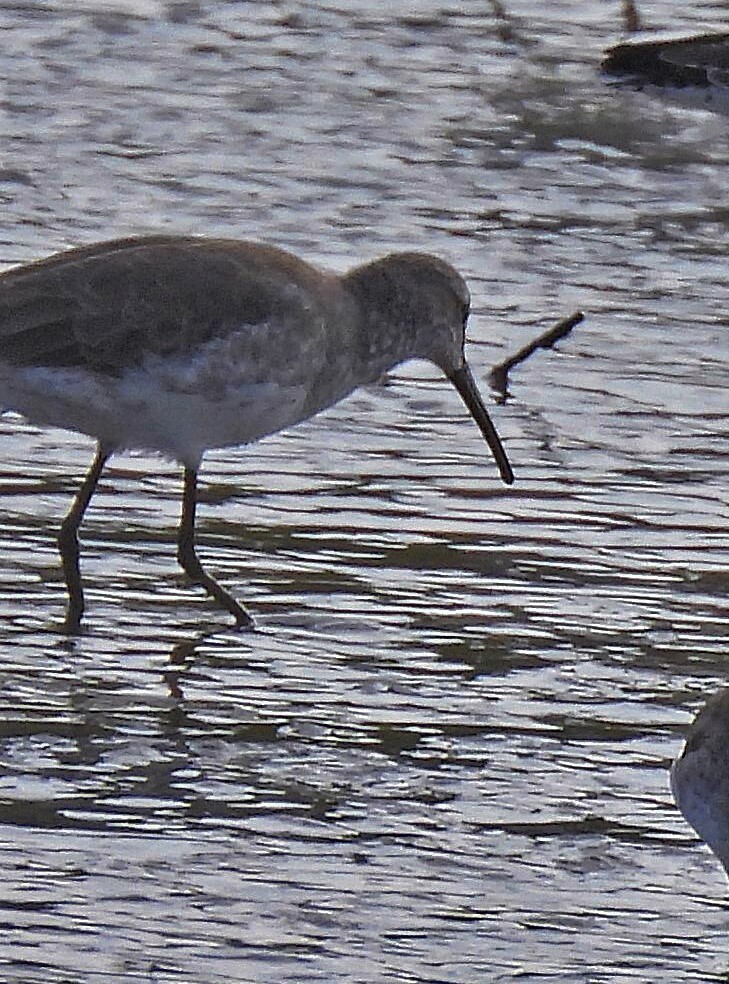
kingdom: Animalia
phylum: Chordata
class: Aves
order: Charadriiformes
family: Scolopacidae
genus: Calidris
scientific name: Calidris himantopus
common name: Stilt sandpiper
